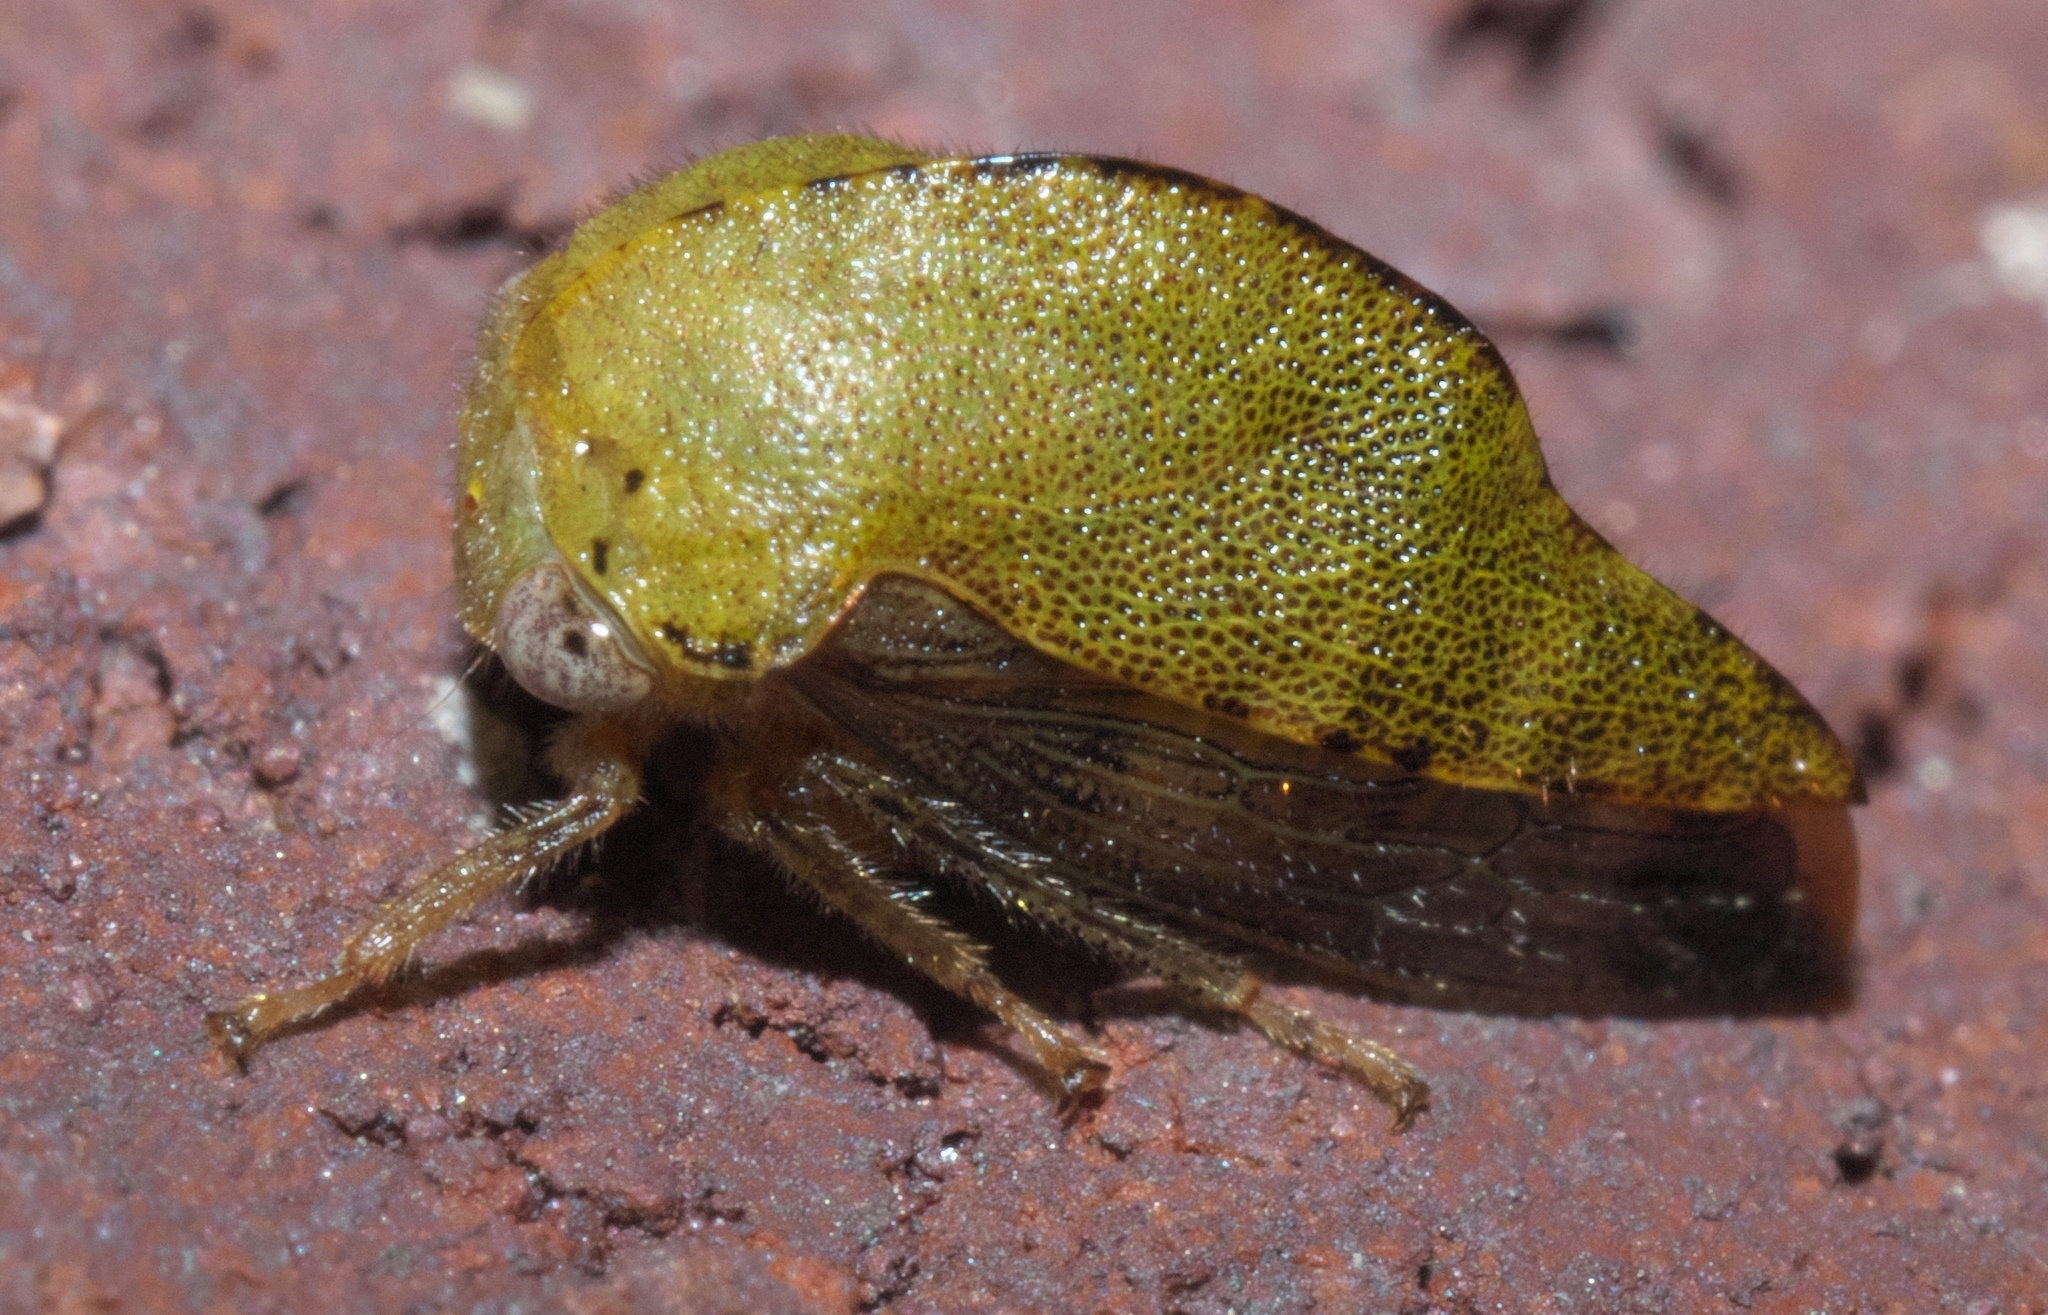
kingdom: Animalia
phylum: Arthropoda
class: Insecta
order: Hemiptera
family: Membracidae
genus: Archasia
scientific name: Archasia pallida
